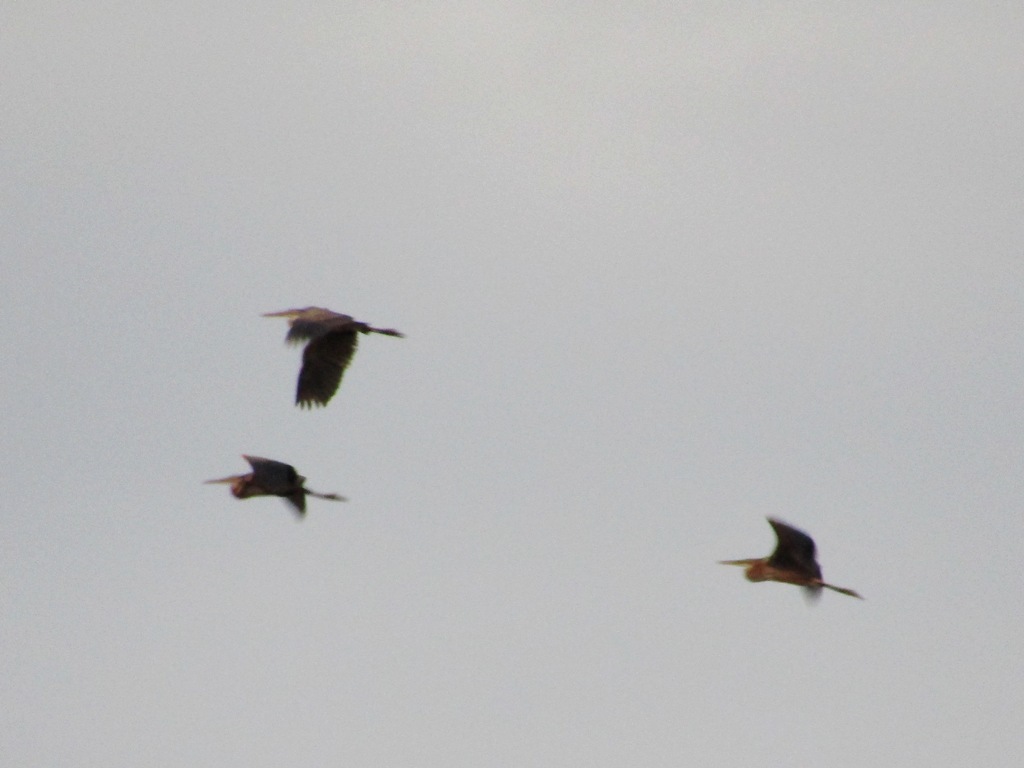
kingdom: Animalia
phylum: Chordata
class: Aves
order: Pelecaniformes
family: Ardeidae
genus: Ardea
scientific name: Ardea purpurea
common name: Purple heron
